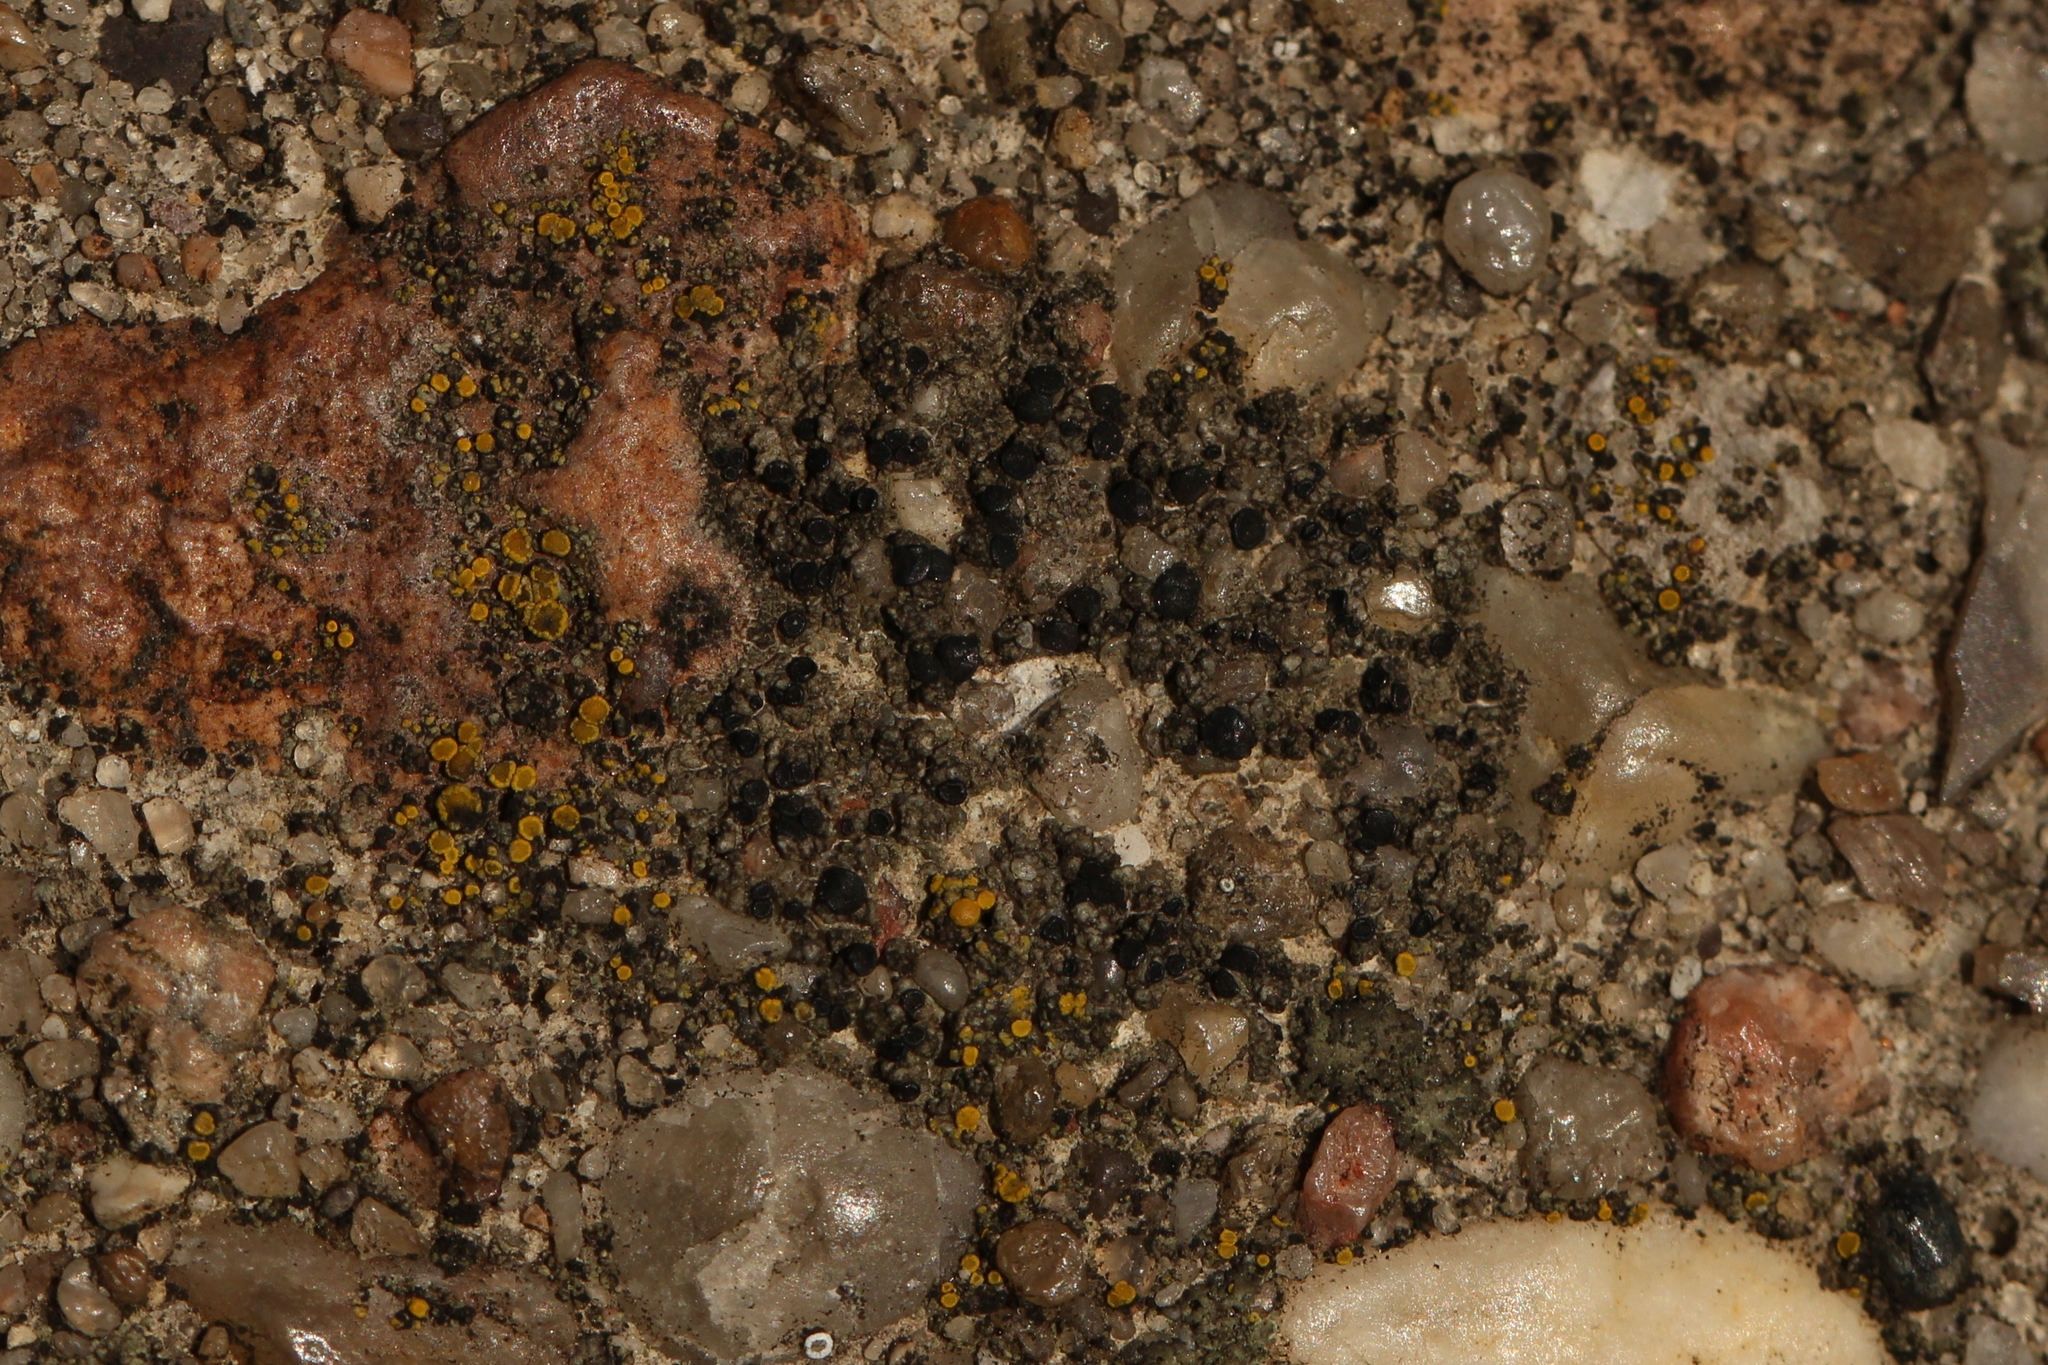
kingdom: Fungi
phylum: Ascomycota
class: Lecanoromycetes
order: Lecanorales
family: Lecanoraceae
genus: Lecidella
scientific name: Lecidella stigmatea
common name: Limestone disc lichen
